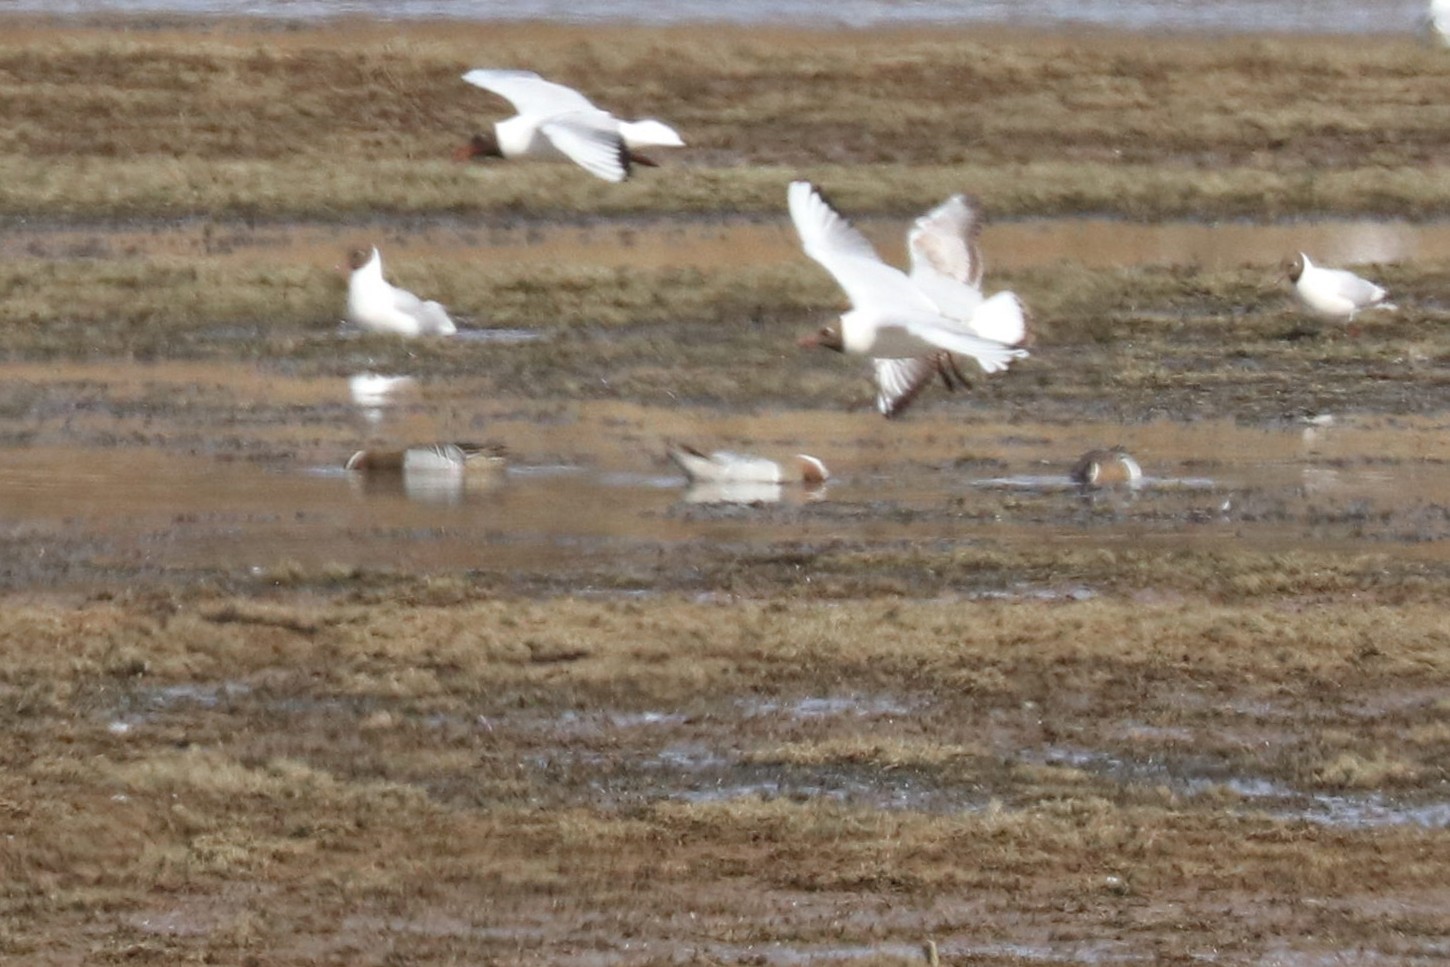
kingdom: Animalia
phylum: Chordata
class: Aves
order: Anseriformes
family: Anatidae
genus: Spatula
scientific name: Spatula querquedula
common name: Garganey
